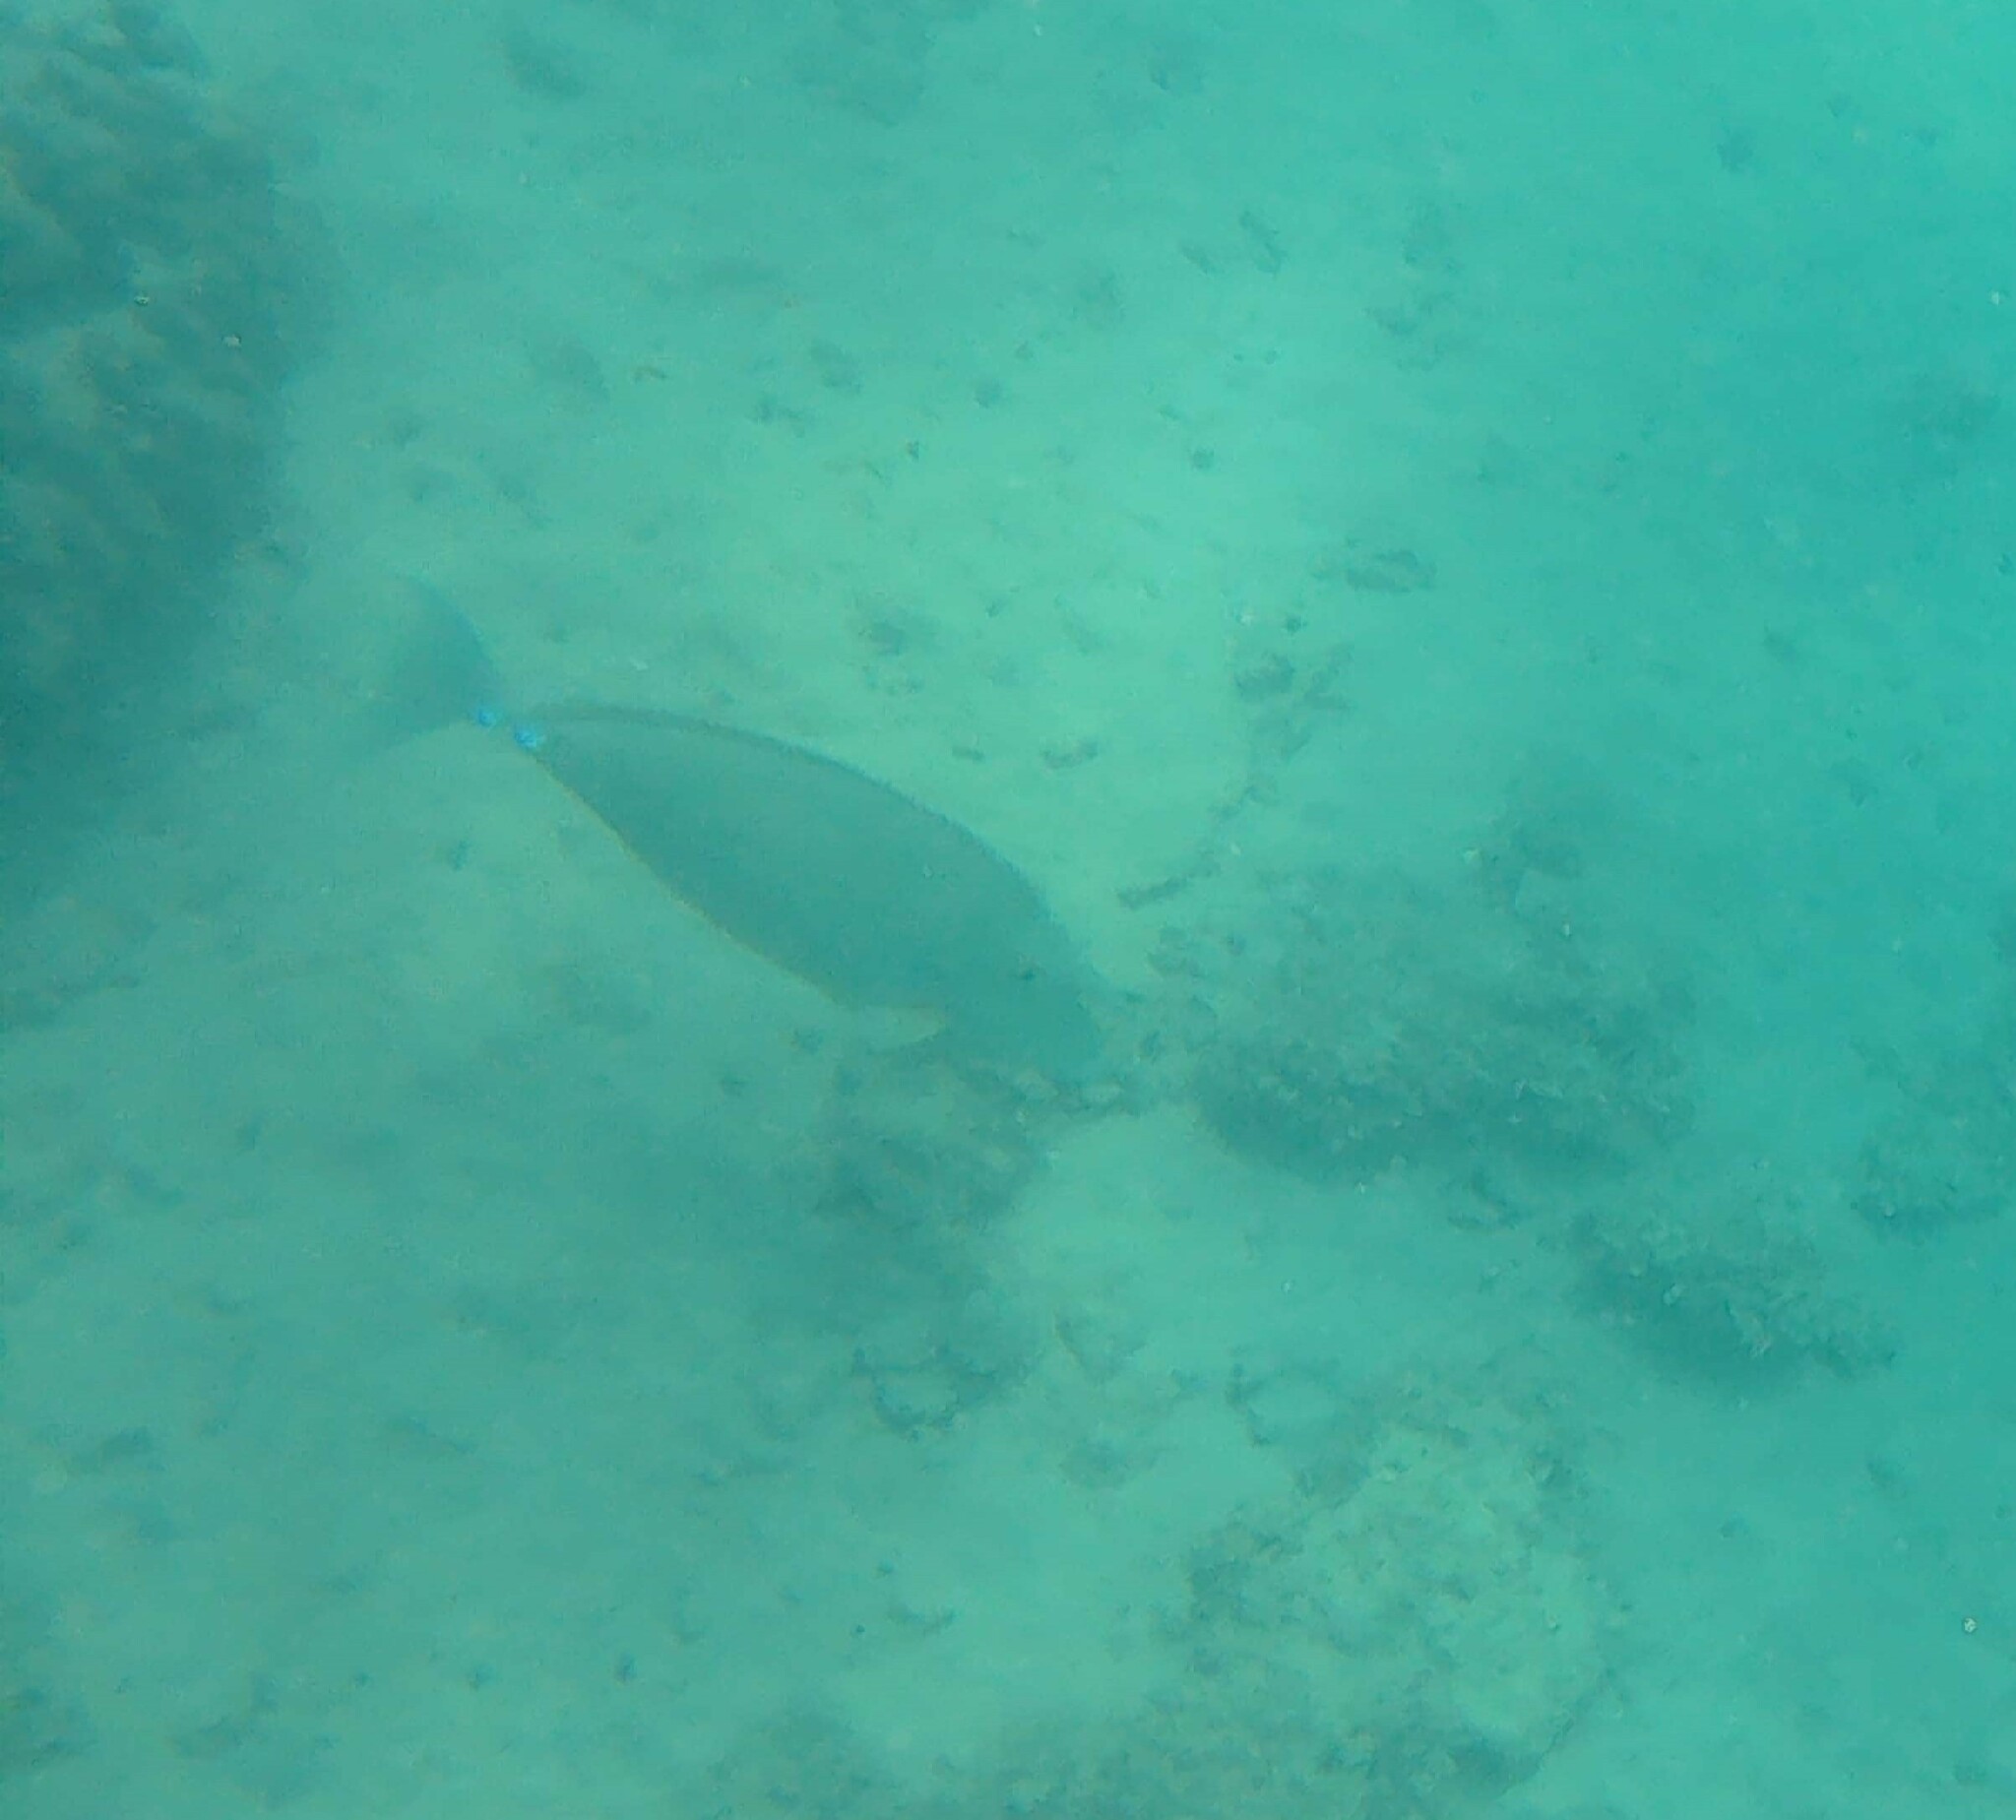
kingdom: Animalia
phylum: Chordata
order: Perciformes
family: Acanthuridae
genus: Naso
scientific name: Naso unicornis
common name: Bluespine unicornfish
